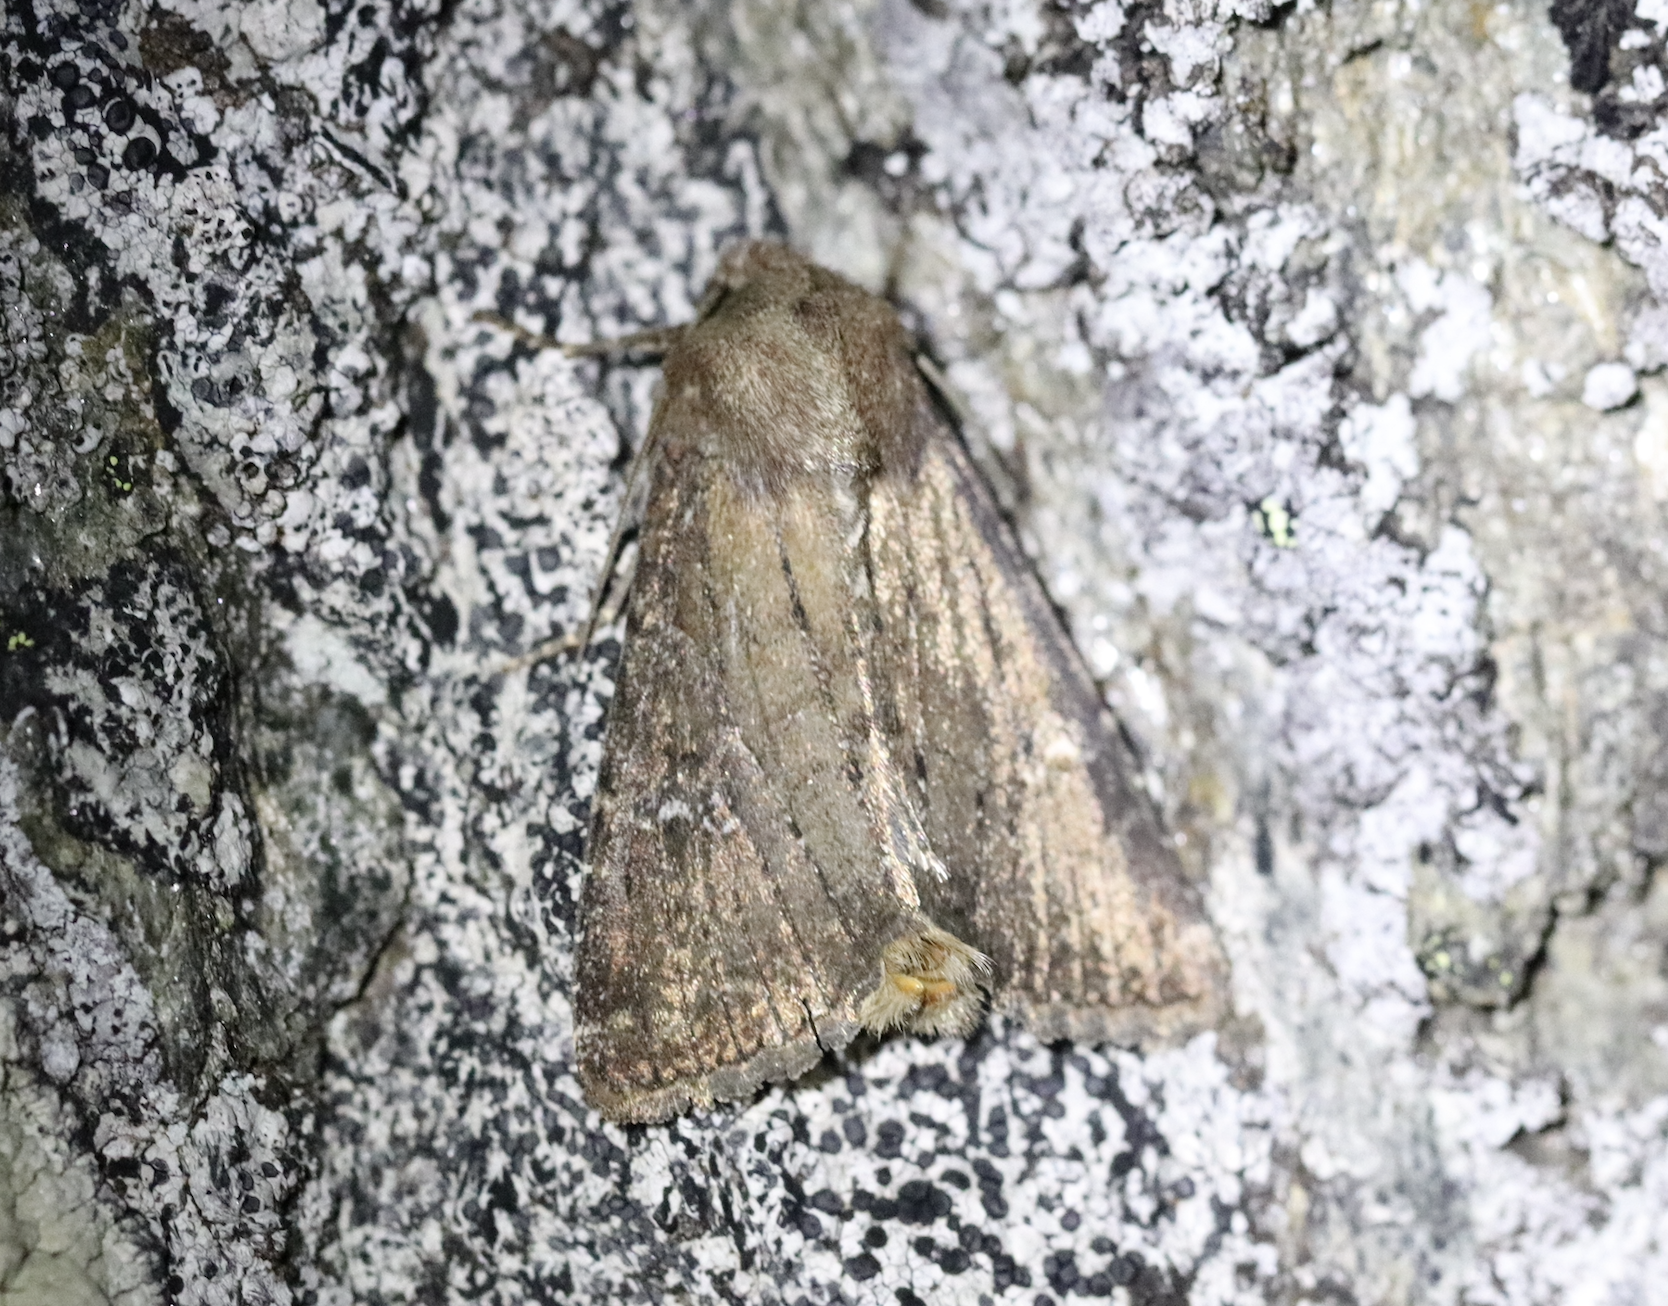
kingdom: Animalia
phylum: Arthropoda
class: Insecta
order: Lepidoptera
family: Noctuidae
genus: Apamea
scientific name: Apamea lateritia
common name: Scarce brindle
